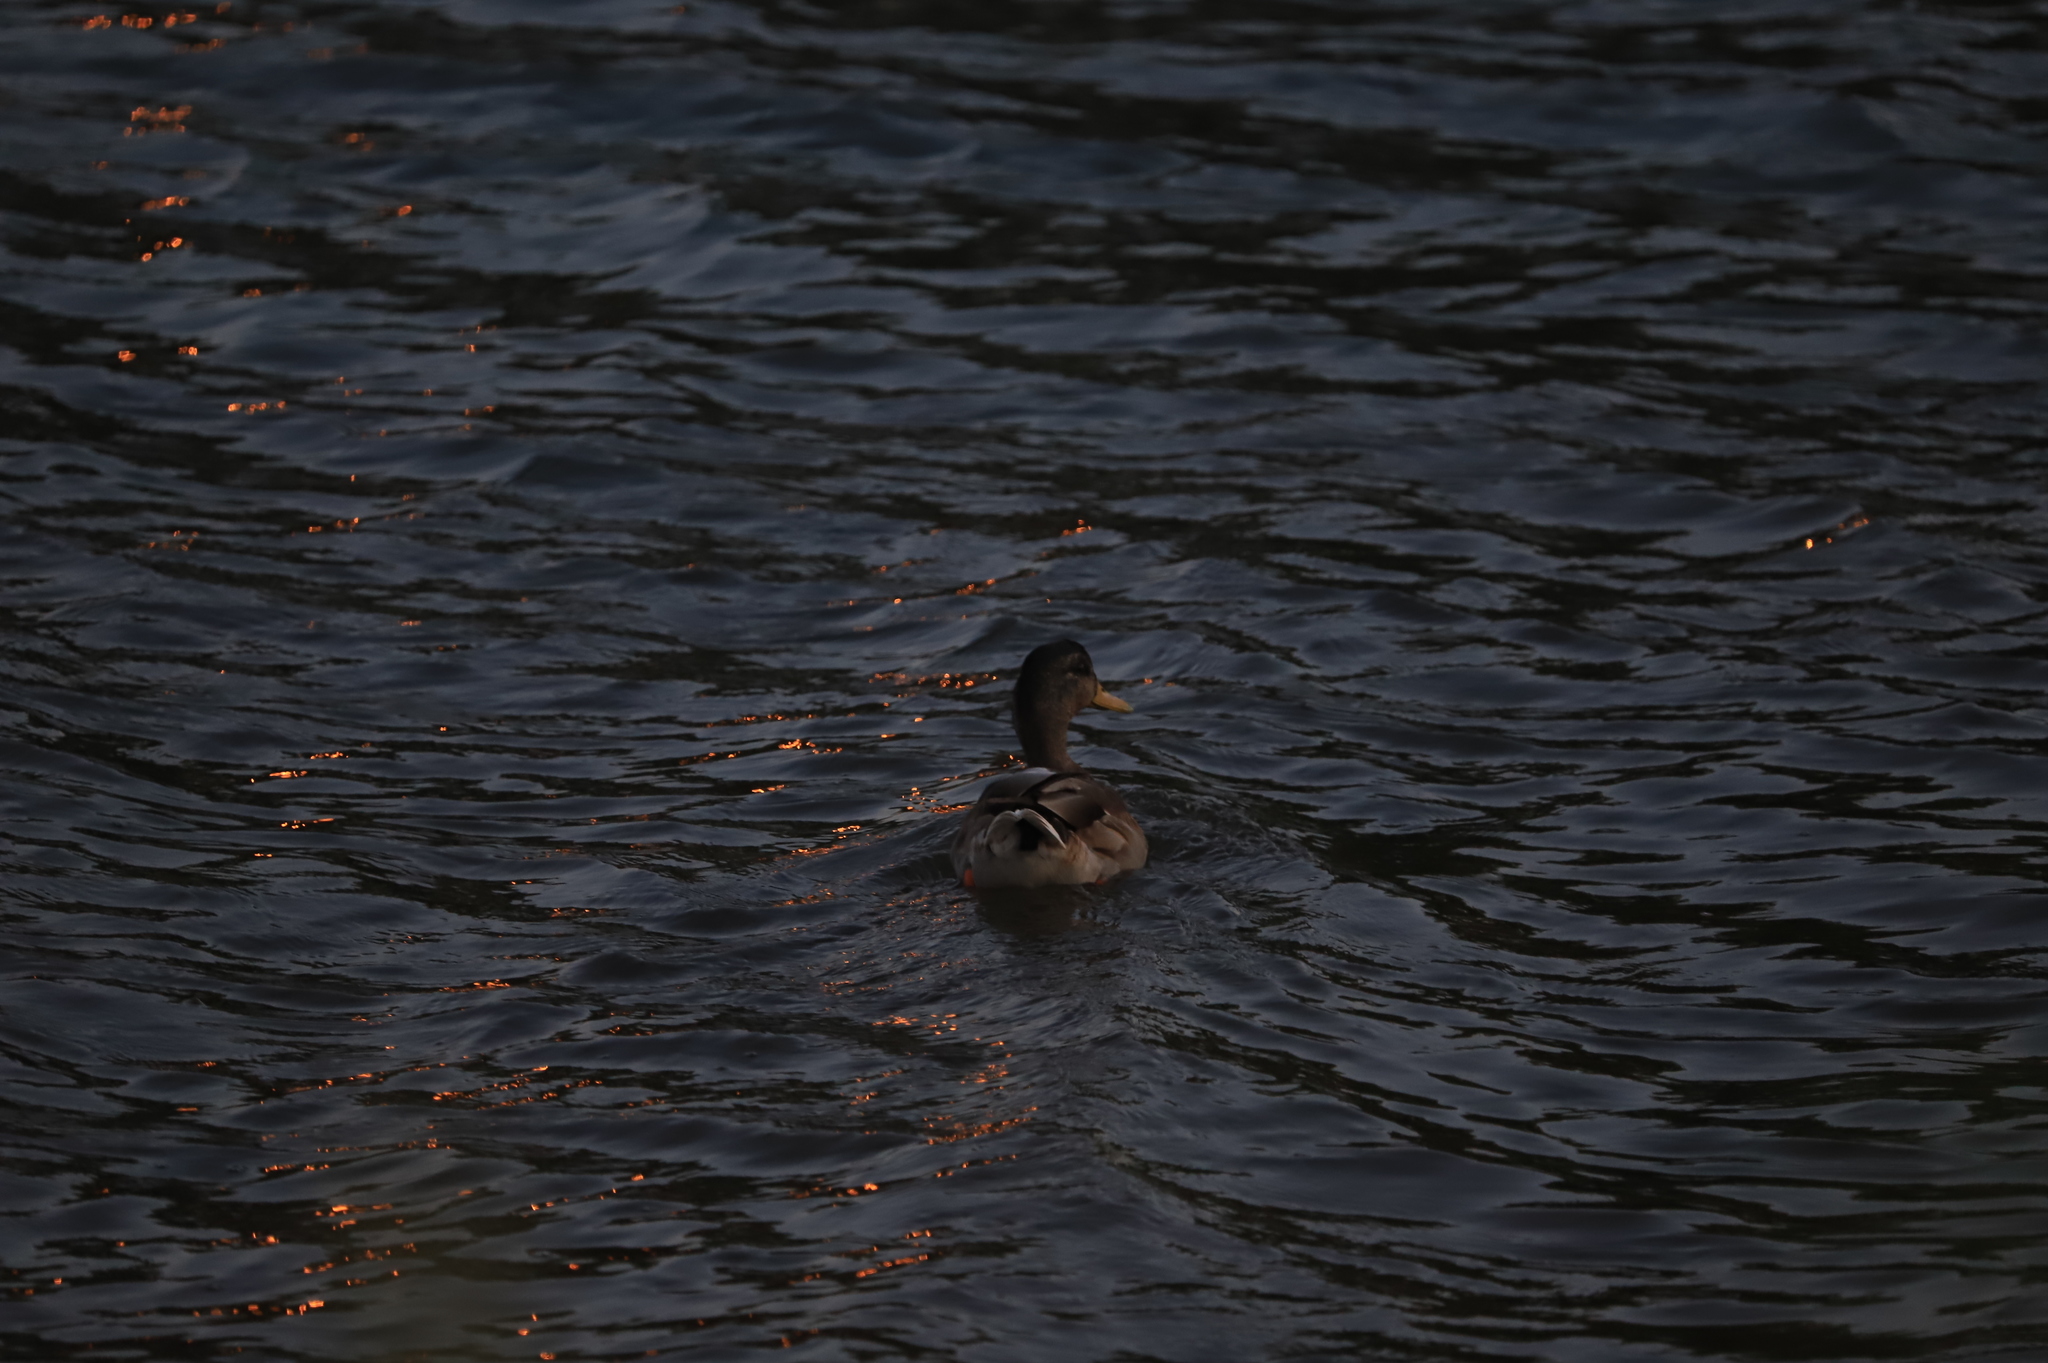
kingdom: Animalia
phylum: Chordata
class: Aves
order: Anseriformes
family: Anatidae
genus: Anas
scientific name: Anas platyrhynchos
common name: Mallard
